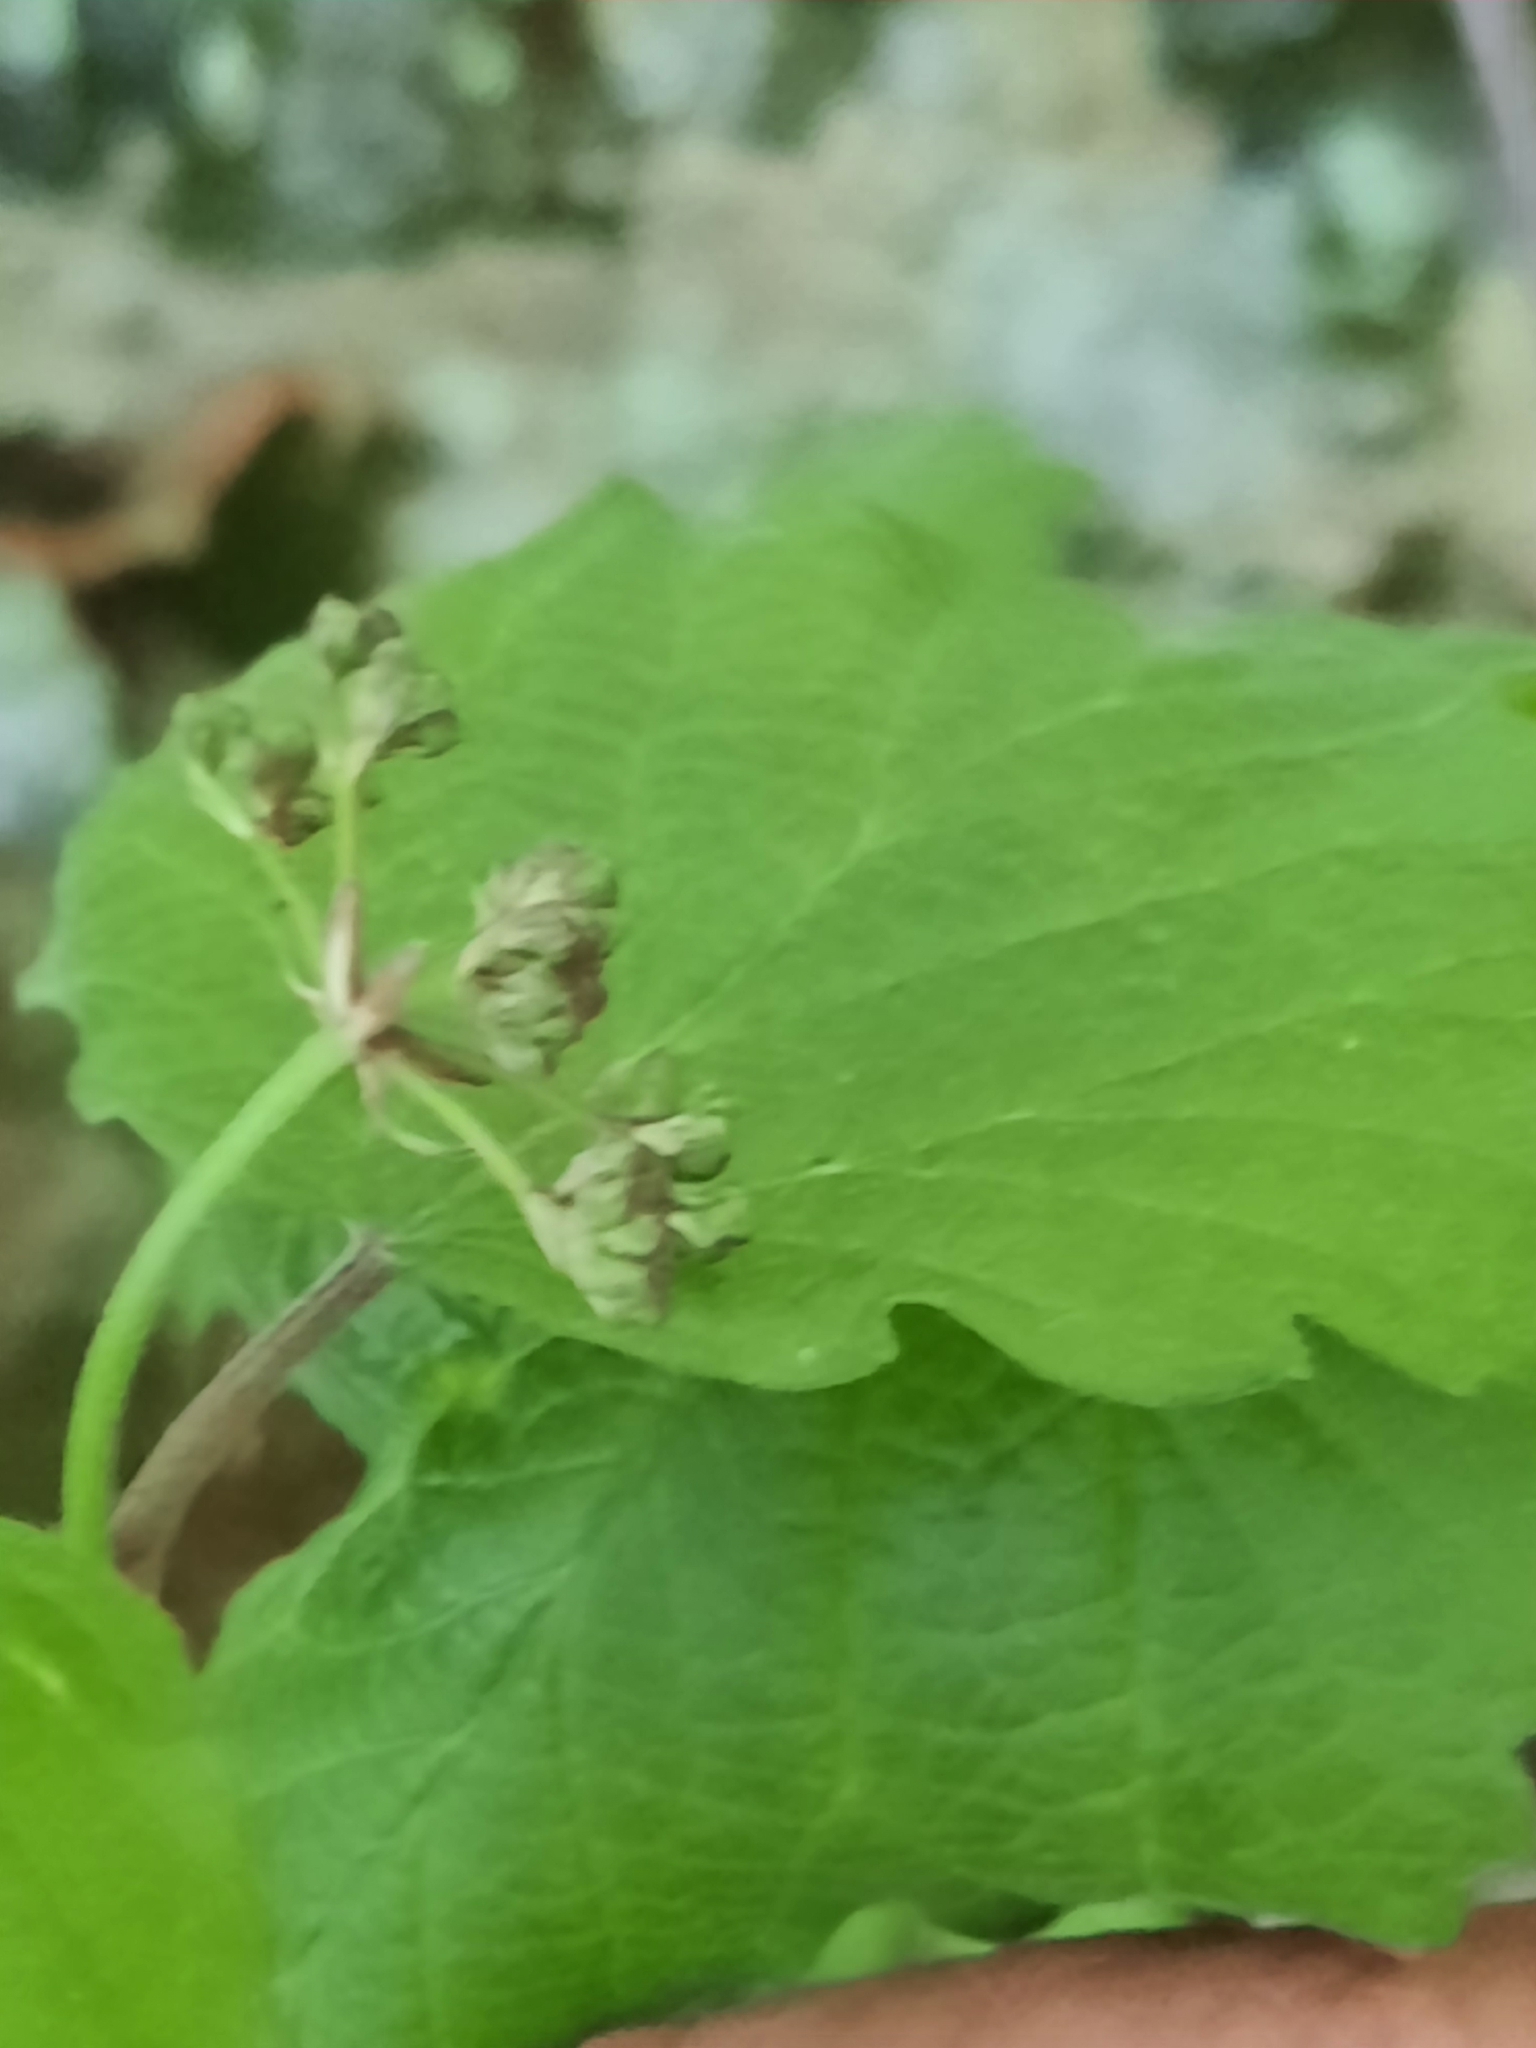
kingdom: Plantae
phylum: Tracheophyta
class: Magnoliopsida
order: Dipsacales
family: Viburnaceae
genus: Viburnum
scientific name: Viburnum acerifolium
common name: Dockmackie
